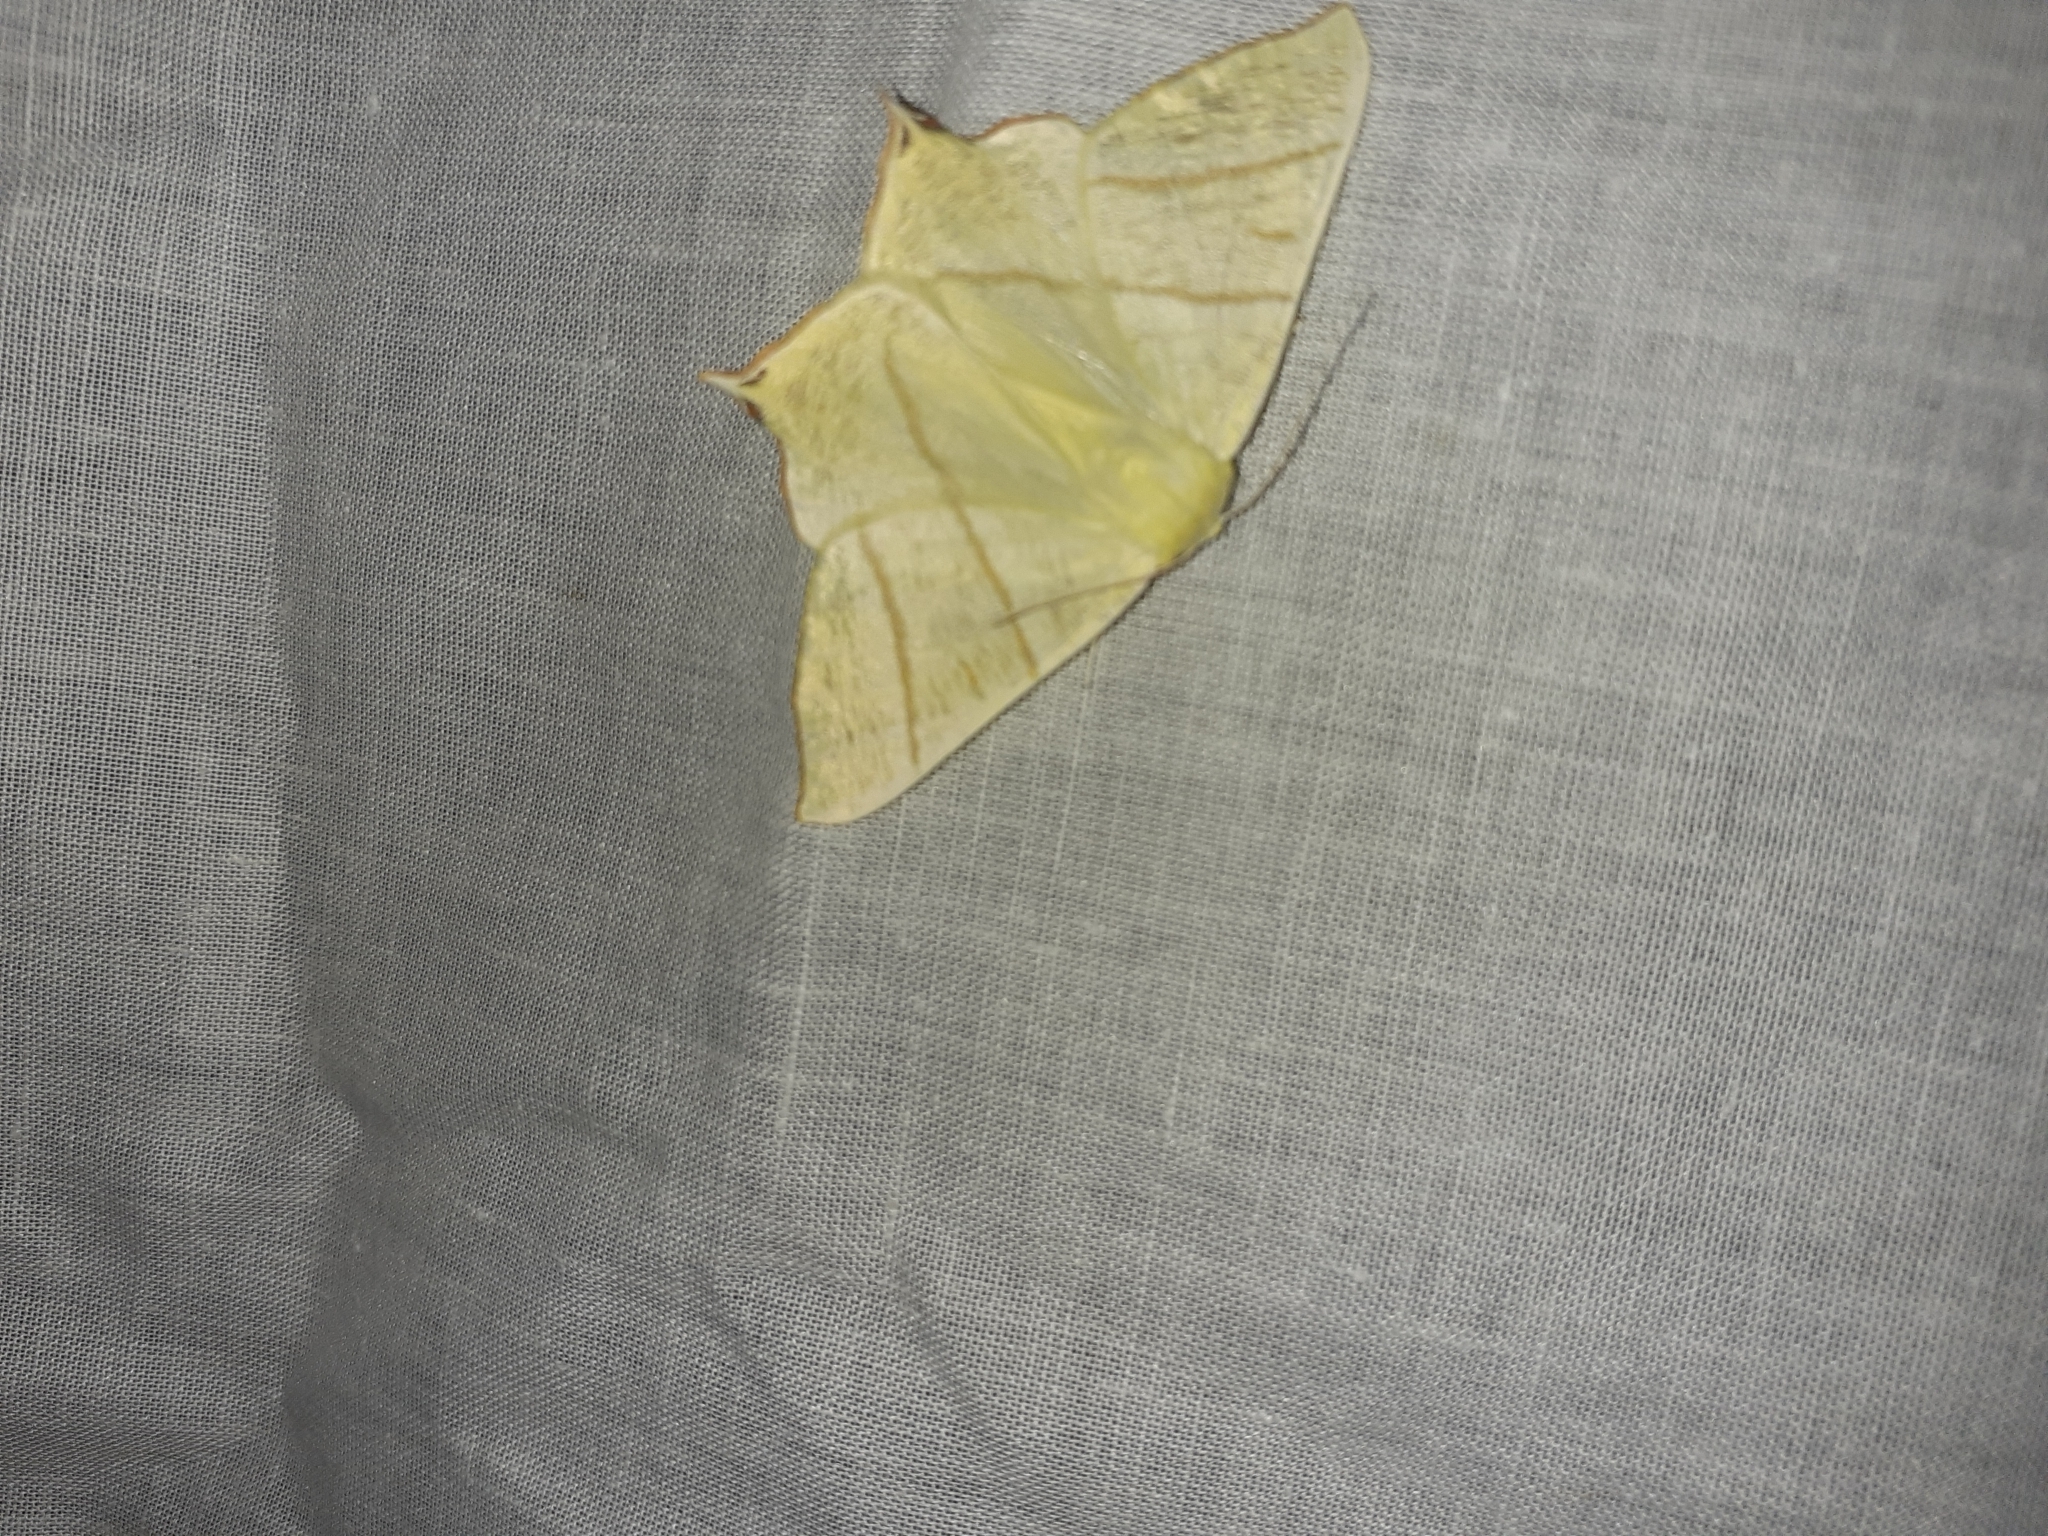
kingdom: Animalia
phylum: Arthropoda
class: Insecta
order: Lepidoptera
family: Geometridae
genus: Ourapteryx
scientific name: Ourapteryx sambucaria
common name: Swallow-tailed moth
